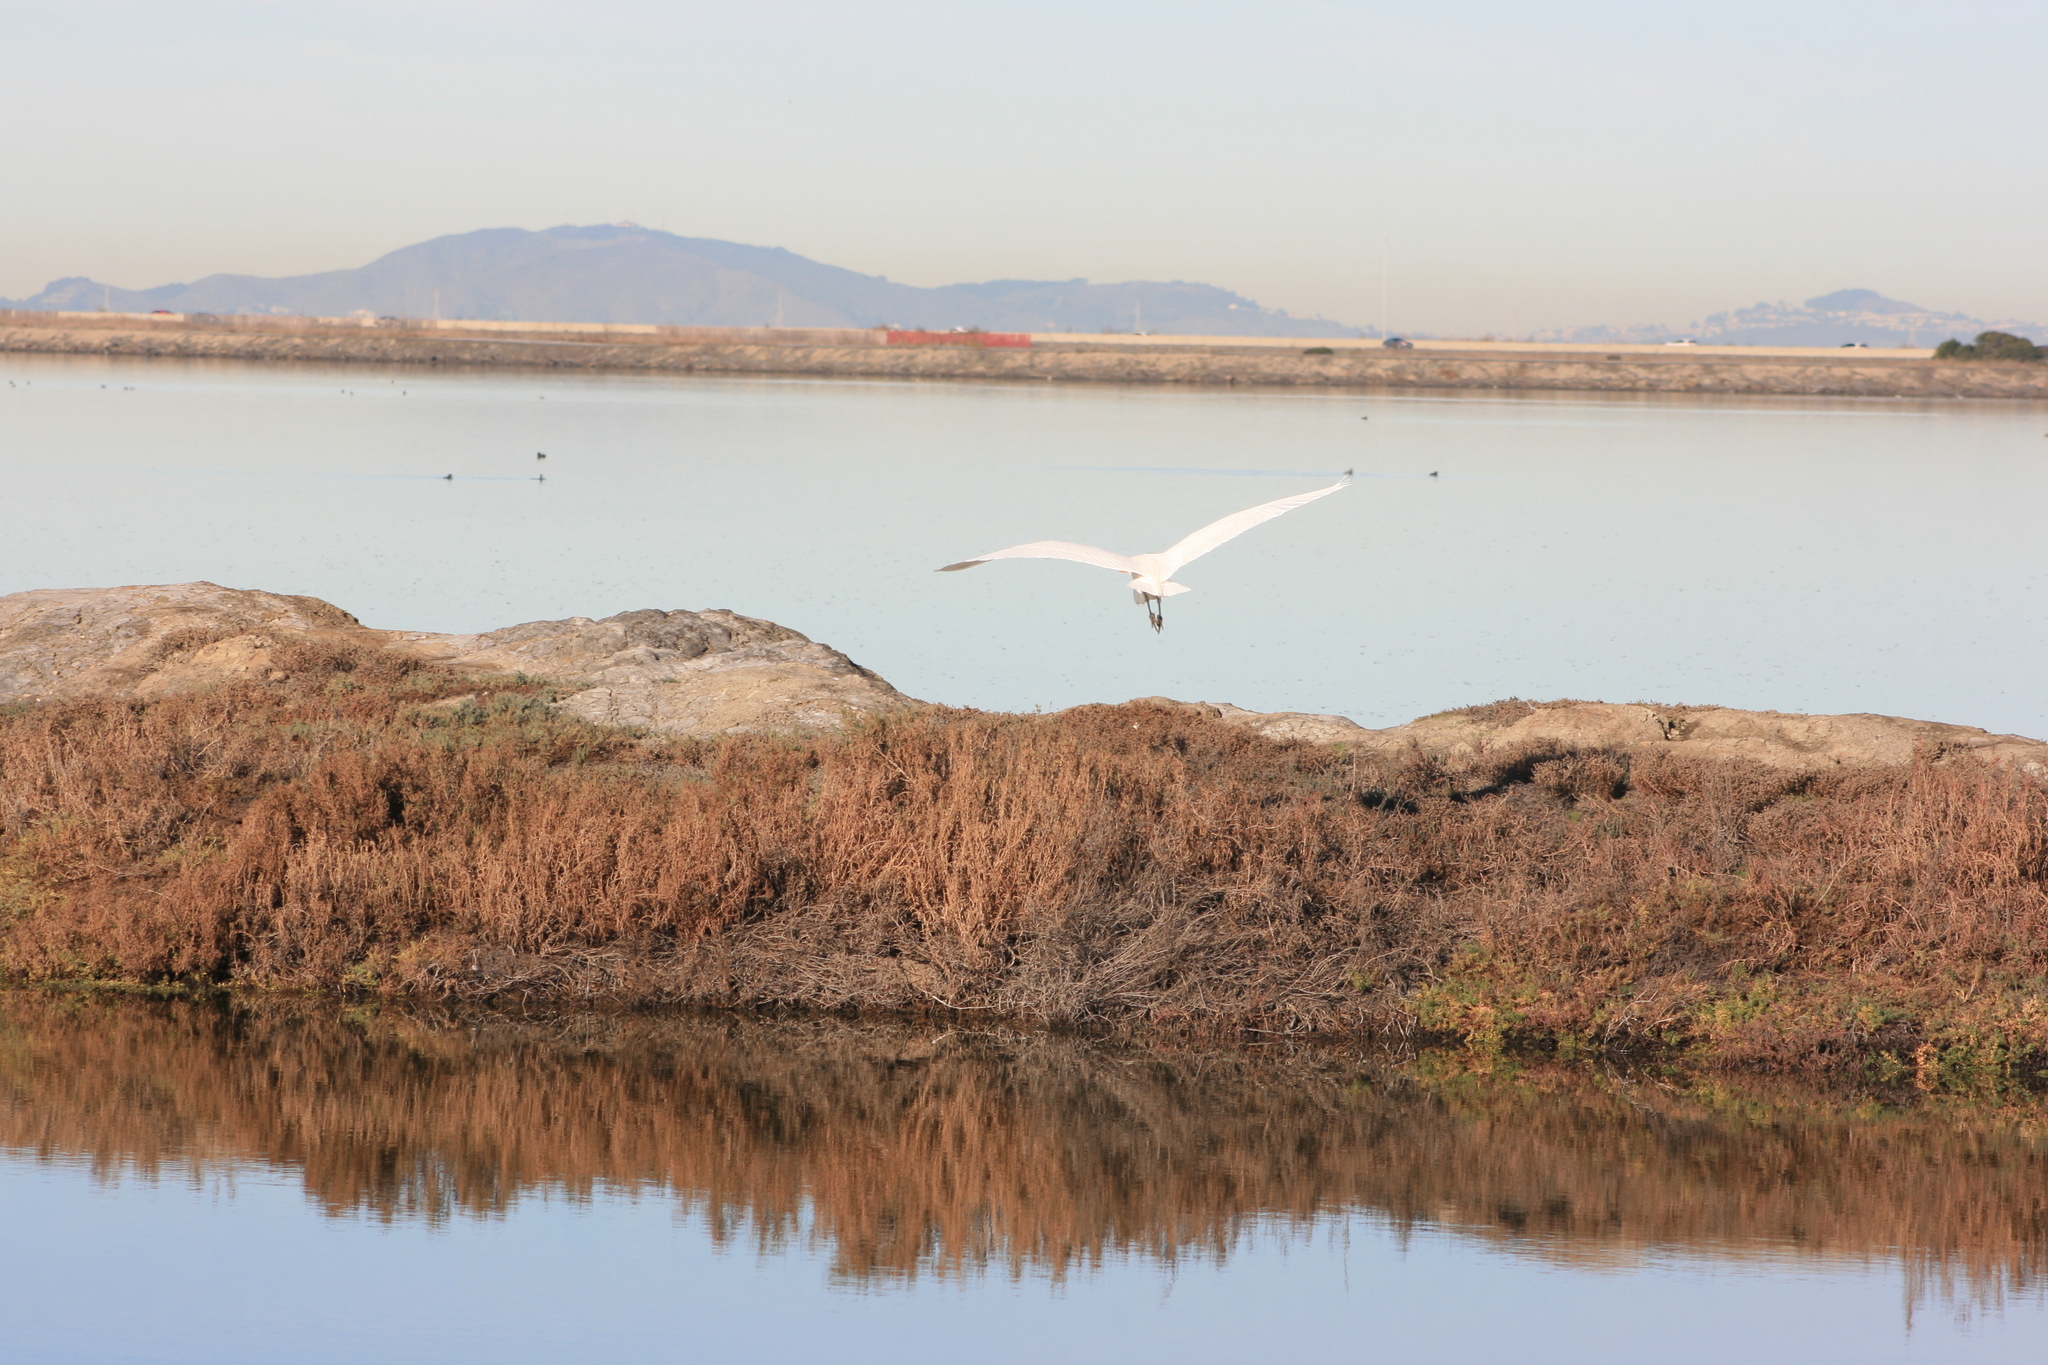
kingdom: Animalia
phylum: Chordata
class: Aves
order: Pelecaniformes
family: Ardeidae
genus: Ardea
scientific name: Ardea alba
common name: Great egret
